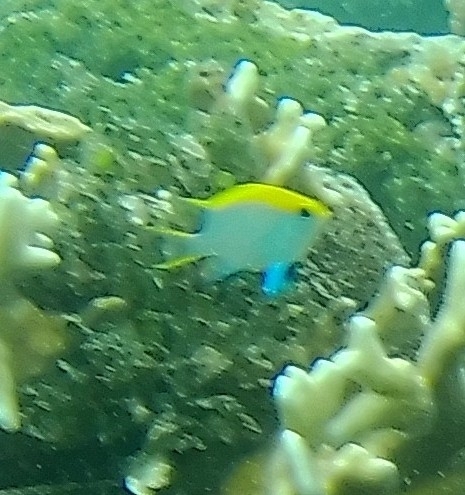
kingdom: Animalia
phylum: Chordata
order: Perciformes
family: Pomacentridae
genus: Neoglyphidodon
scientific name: Neoglyphidodon melas
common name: Black damsel
